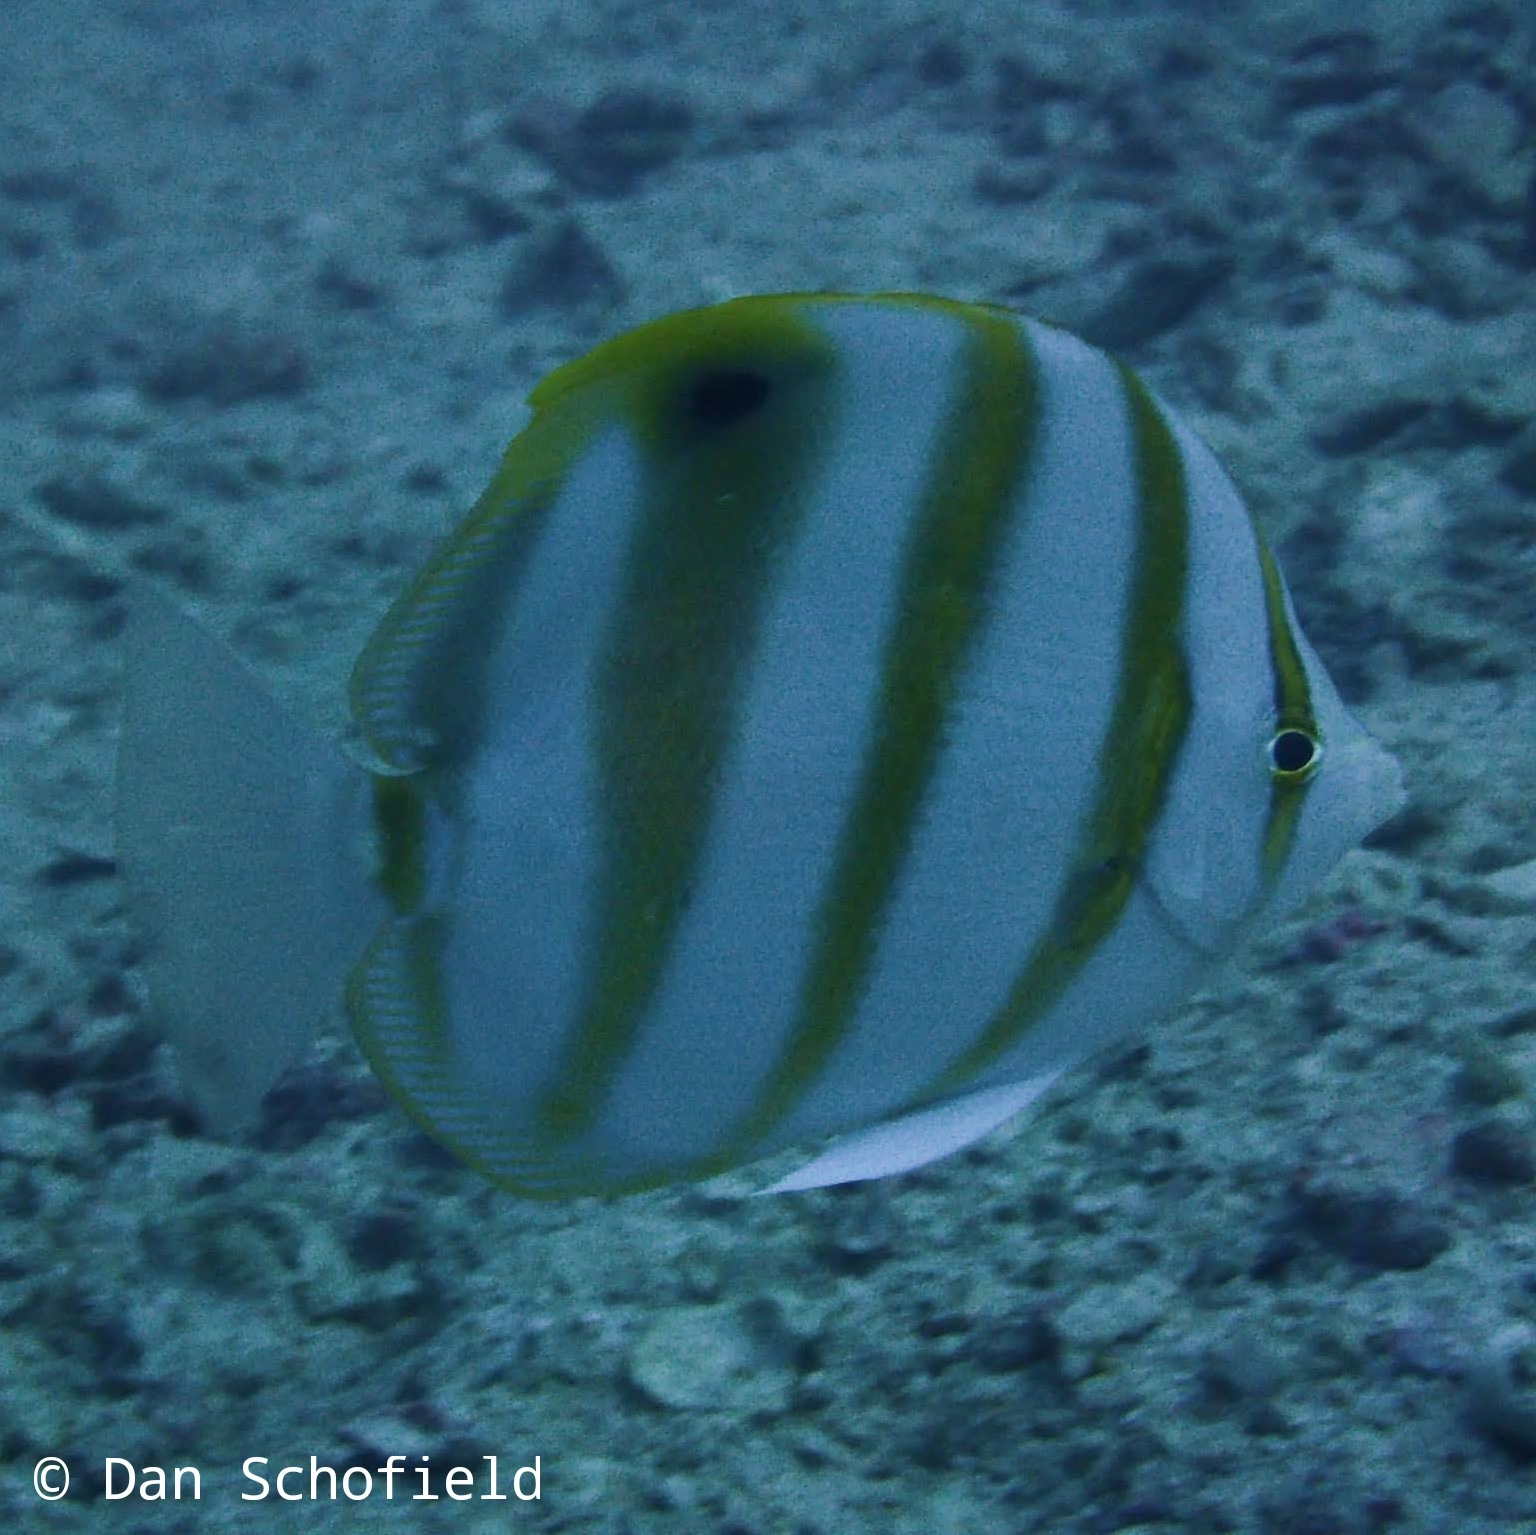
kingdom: Animalia
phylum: Chordata
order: Perciformes
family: Chaetodontidae
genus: Parachaetodon
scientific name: Parachaetodon ocellatus
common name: Ocellate coralfish
